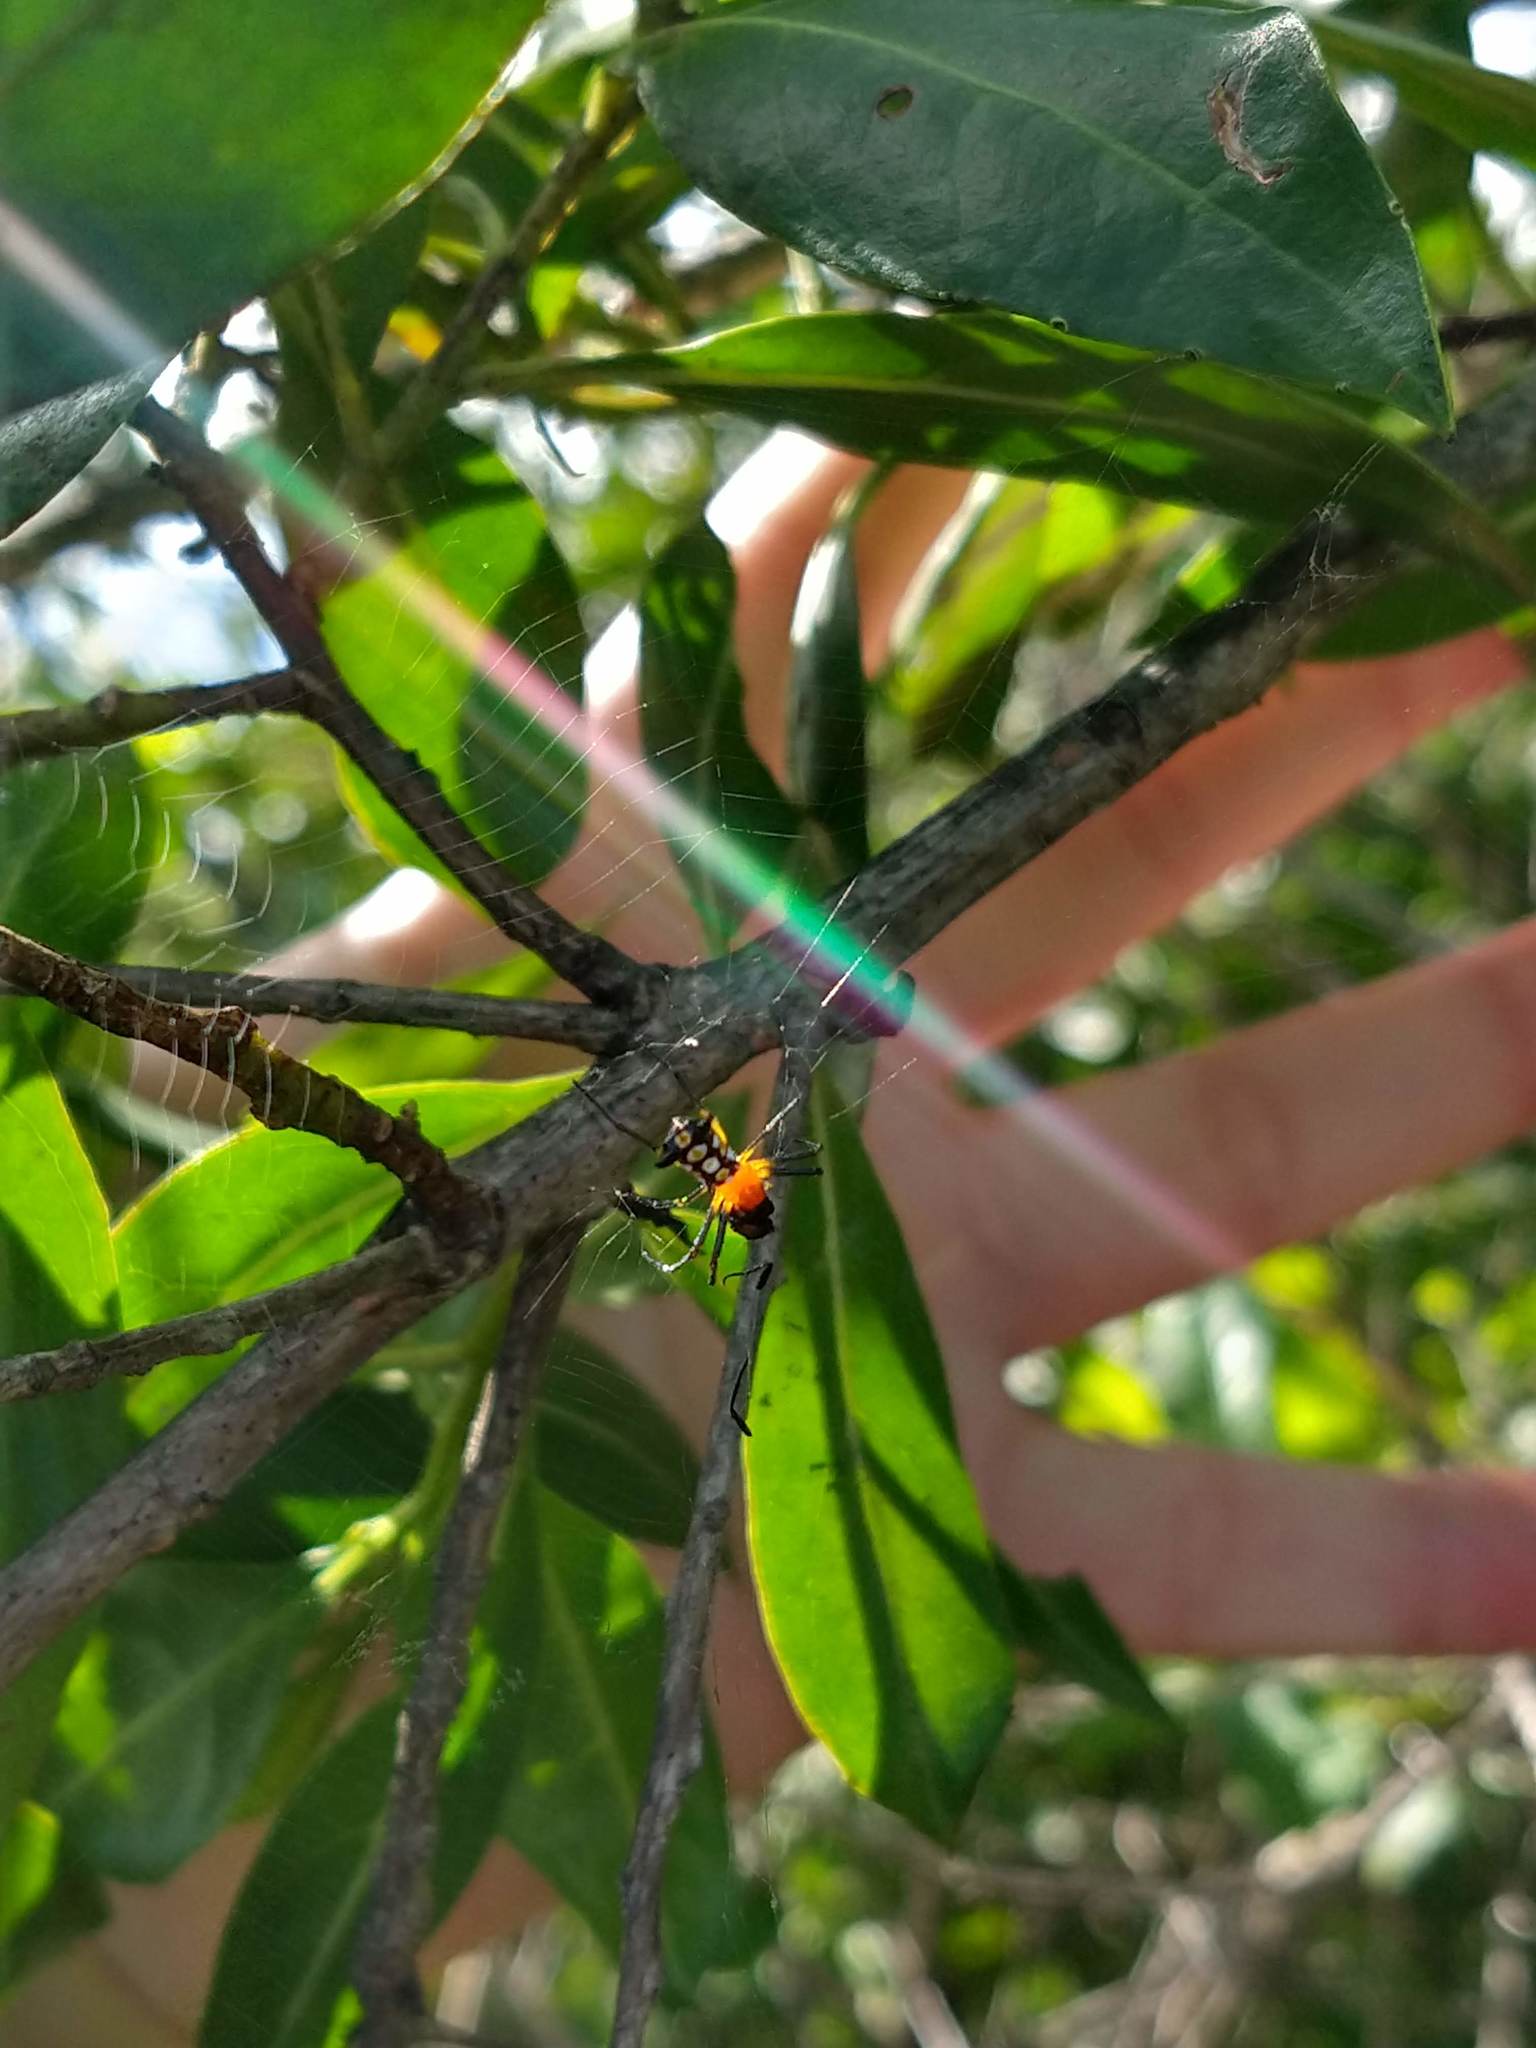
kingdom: Animalia
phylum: Arthropoda
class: Arachnida
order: Araneae
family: Araneidae
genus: Micrathena
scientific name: Micrathena funebris
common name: Orb weavers
